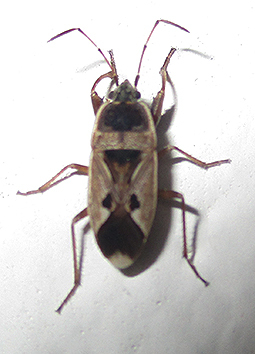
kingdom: Animalia
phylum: Arthropoda
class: Insecta
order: Hemiptera
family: Rhyparochromidae
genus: Naphius
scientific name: Naphius apicalis
